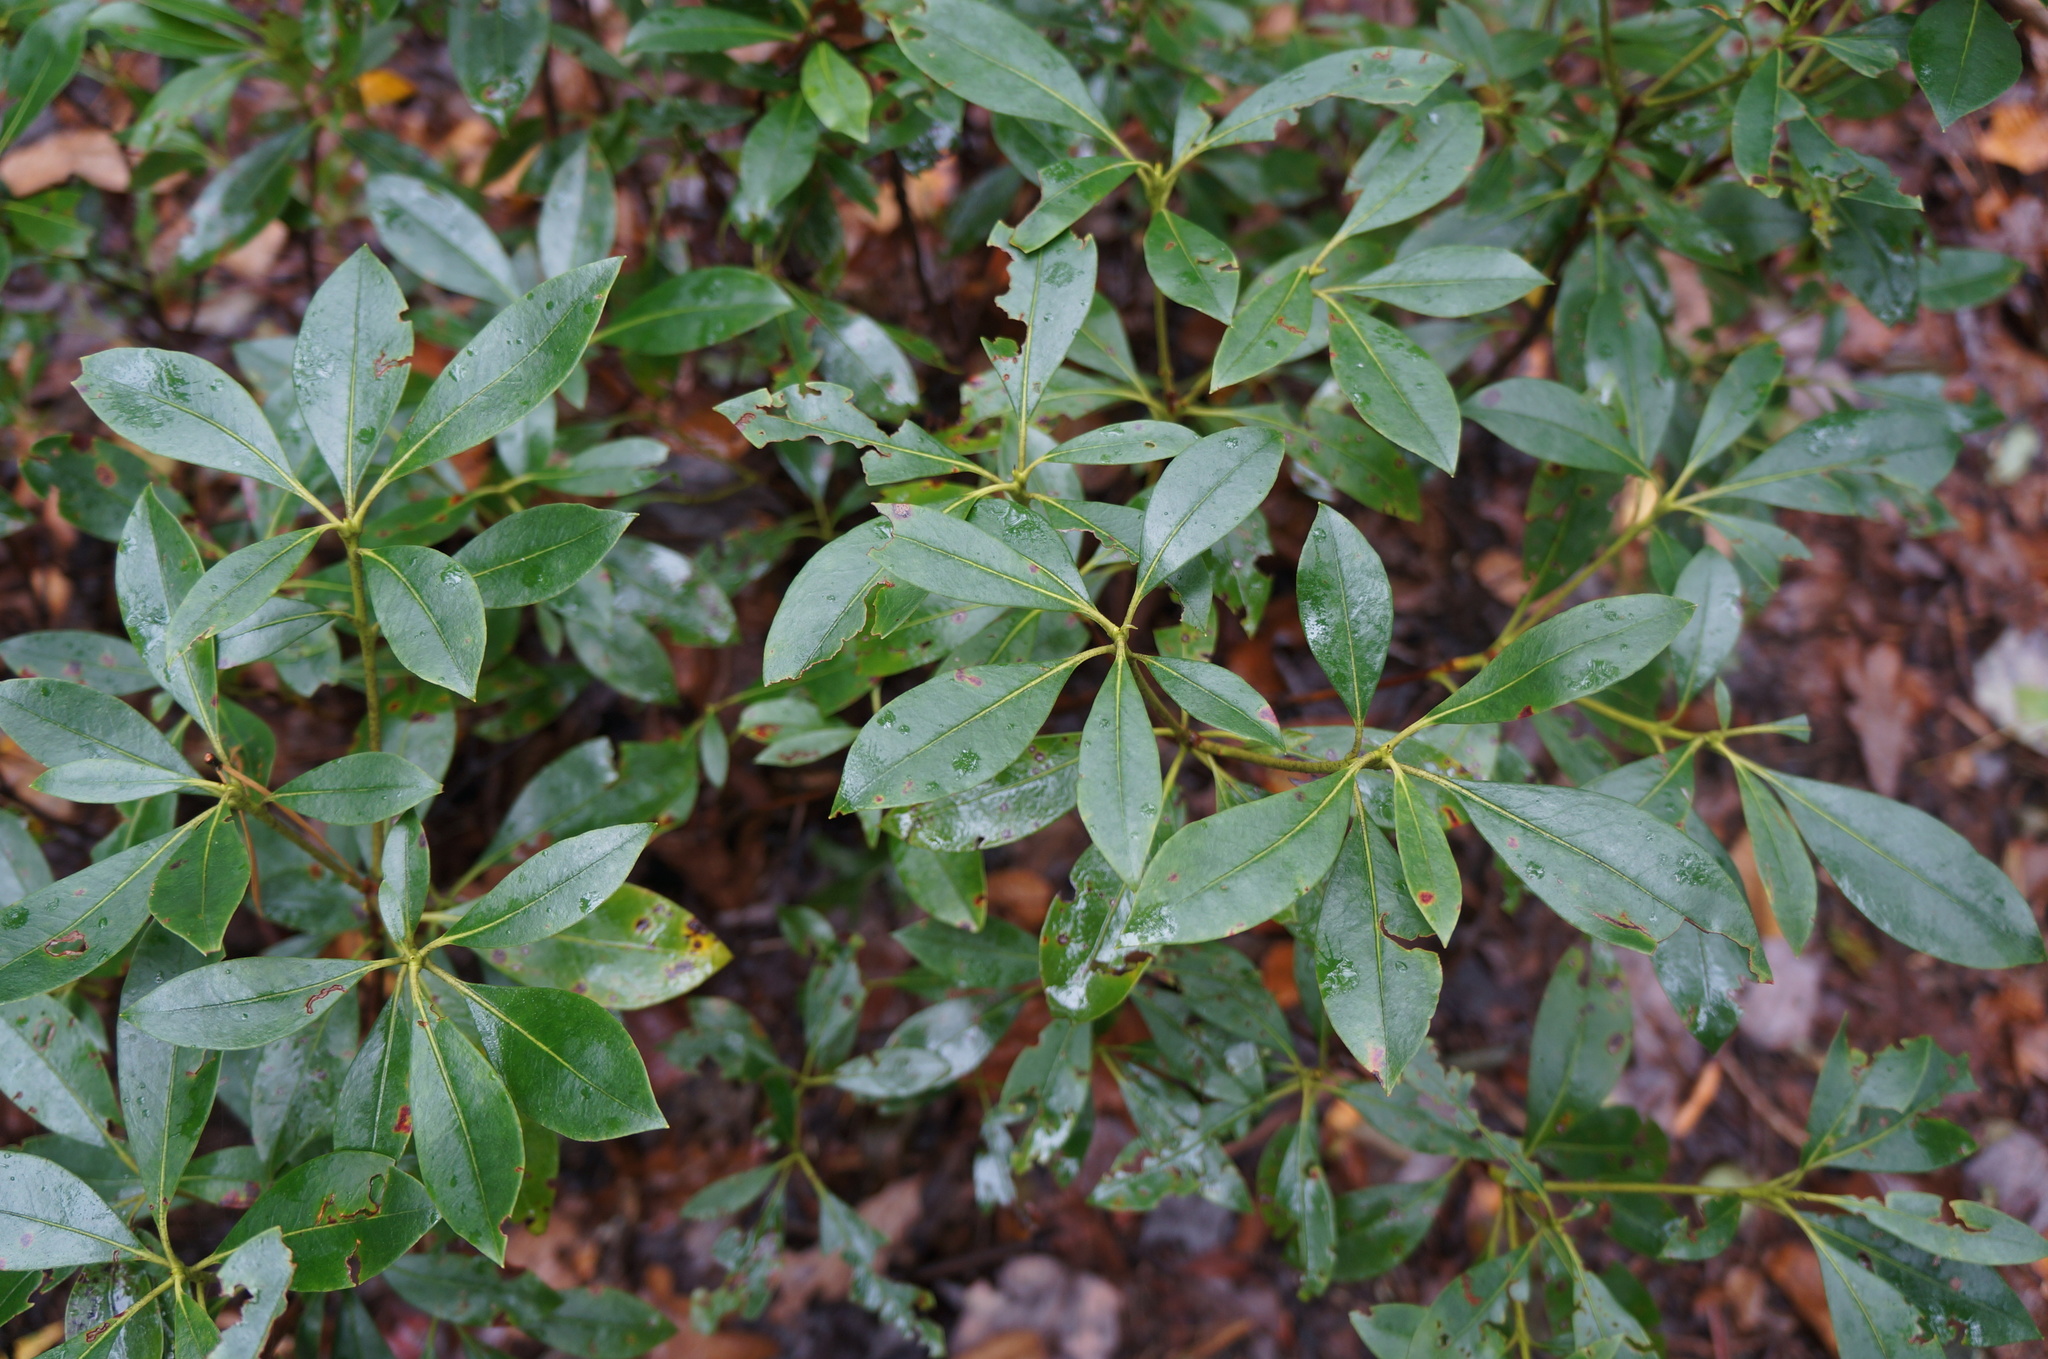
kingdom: Plantae
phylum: Tracheophyta
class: Magnoliopsida
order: Ericales
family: Ericaceae
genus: Kalmia
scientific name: Kalmia latifolia
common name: Mountain-laurel
